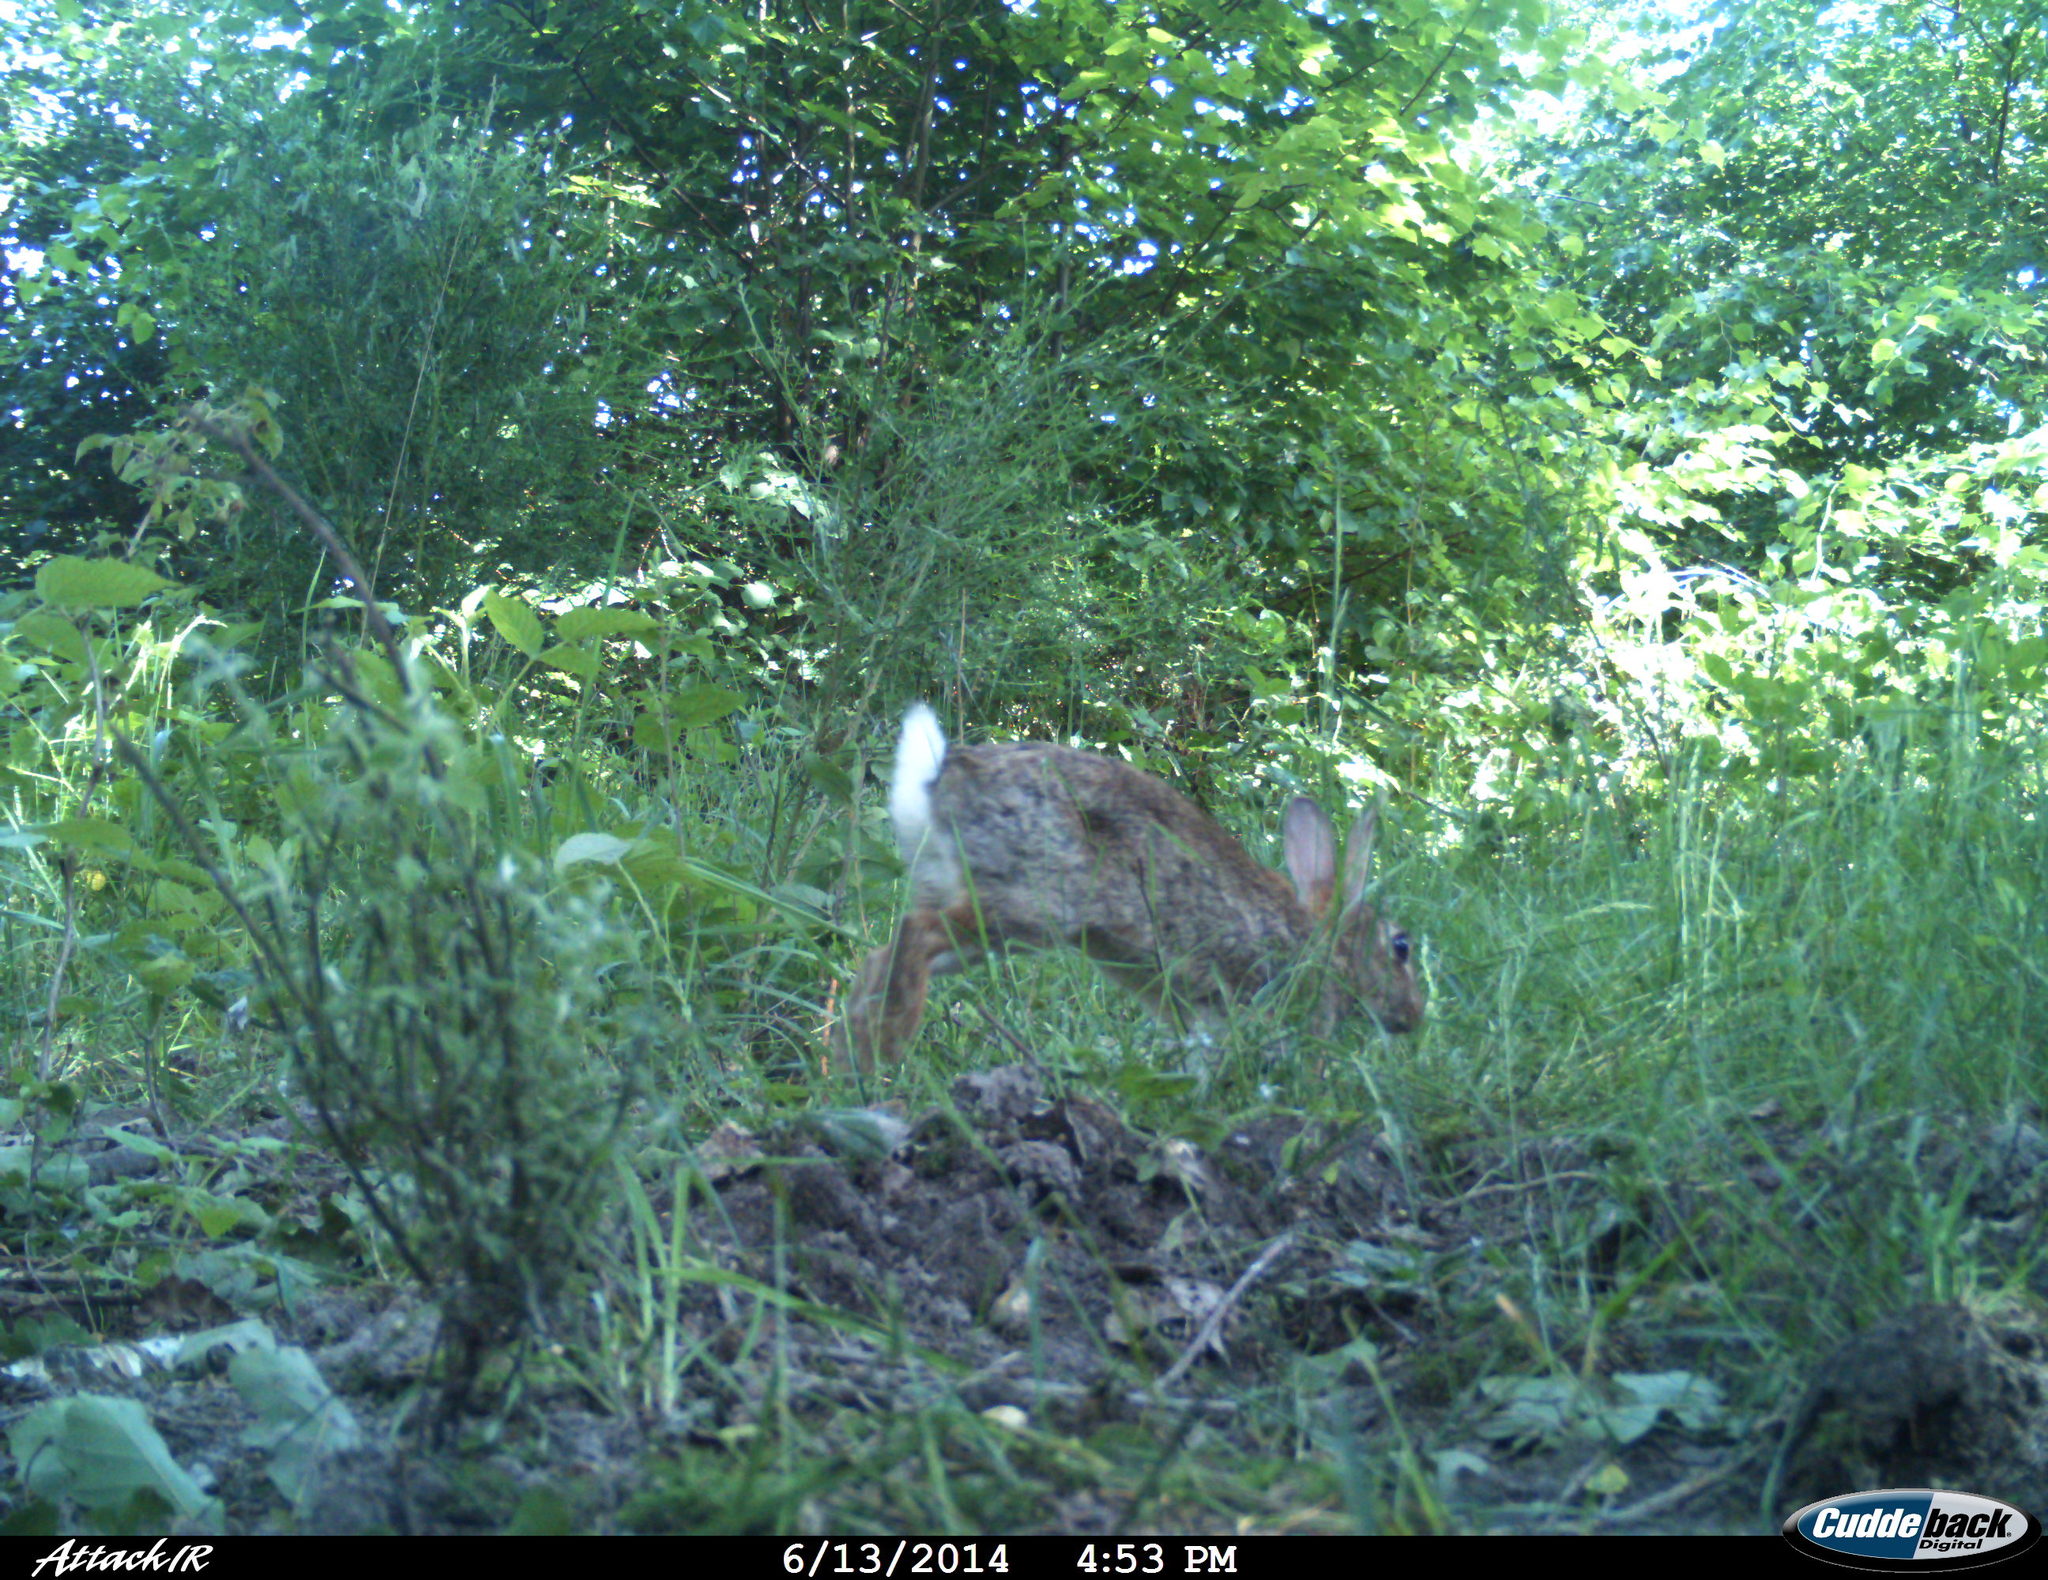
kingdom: Animalia
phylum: Chordata
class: Mammalia
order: Lagomorpha
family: Leporidae
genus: Oryctolagus
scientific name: Oryctolagus cuniculus
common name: European rabbit
